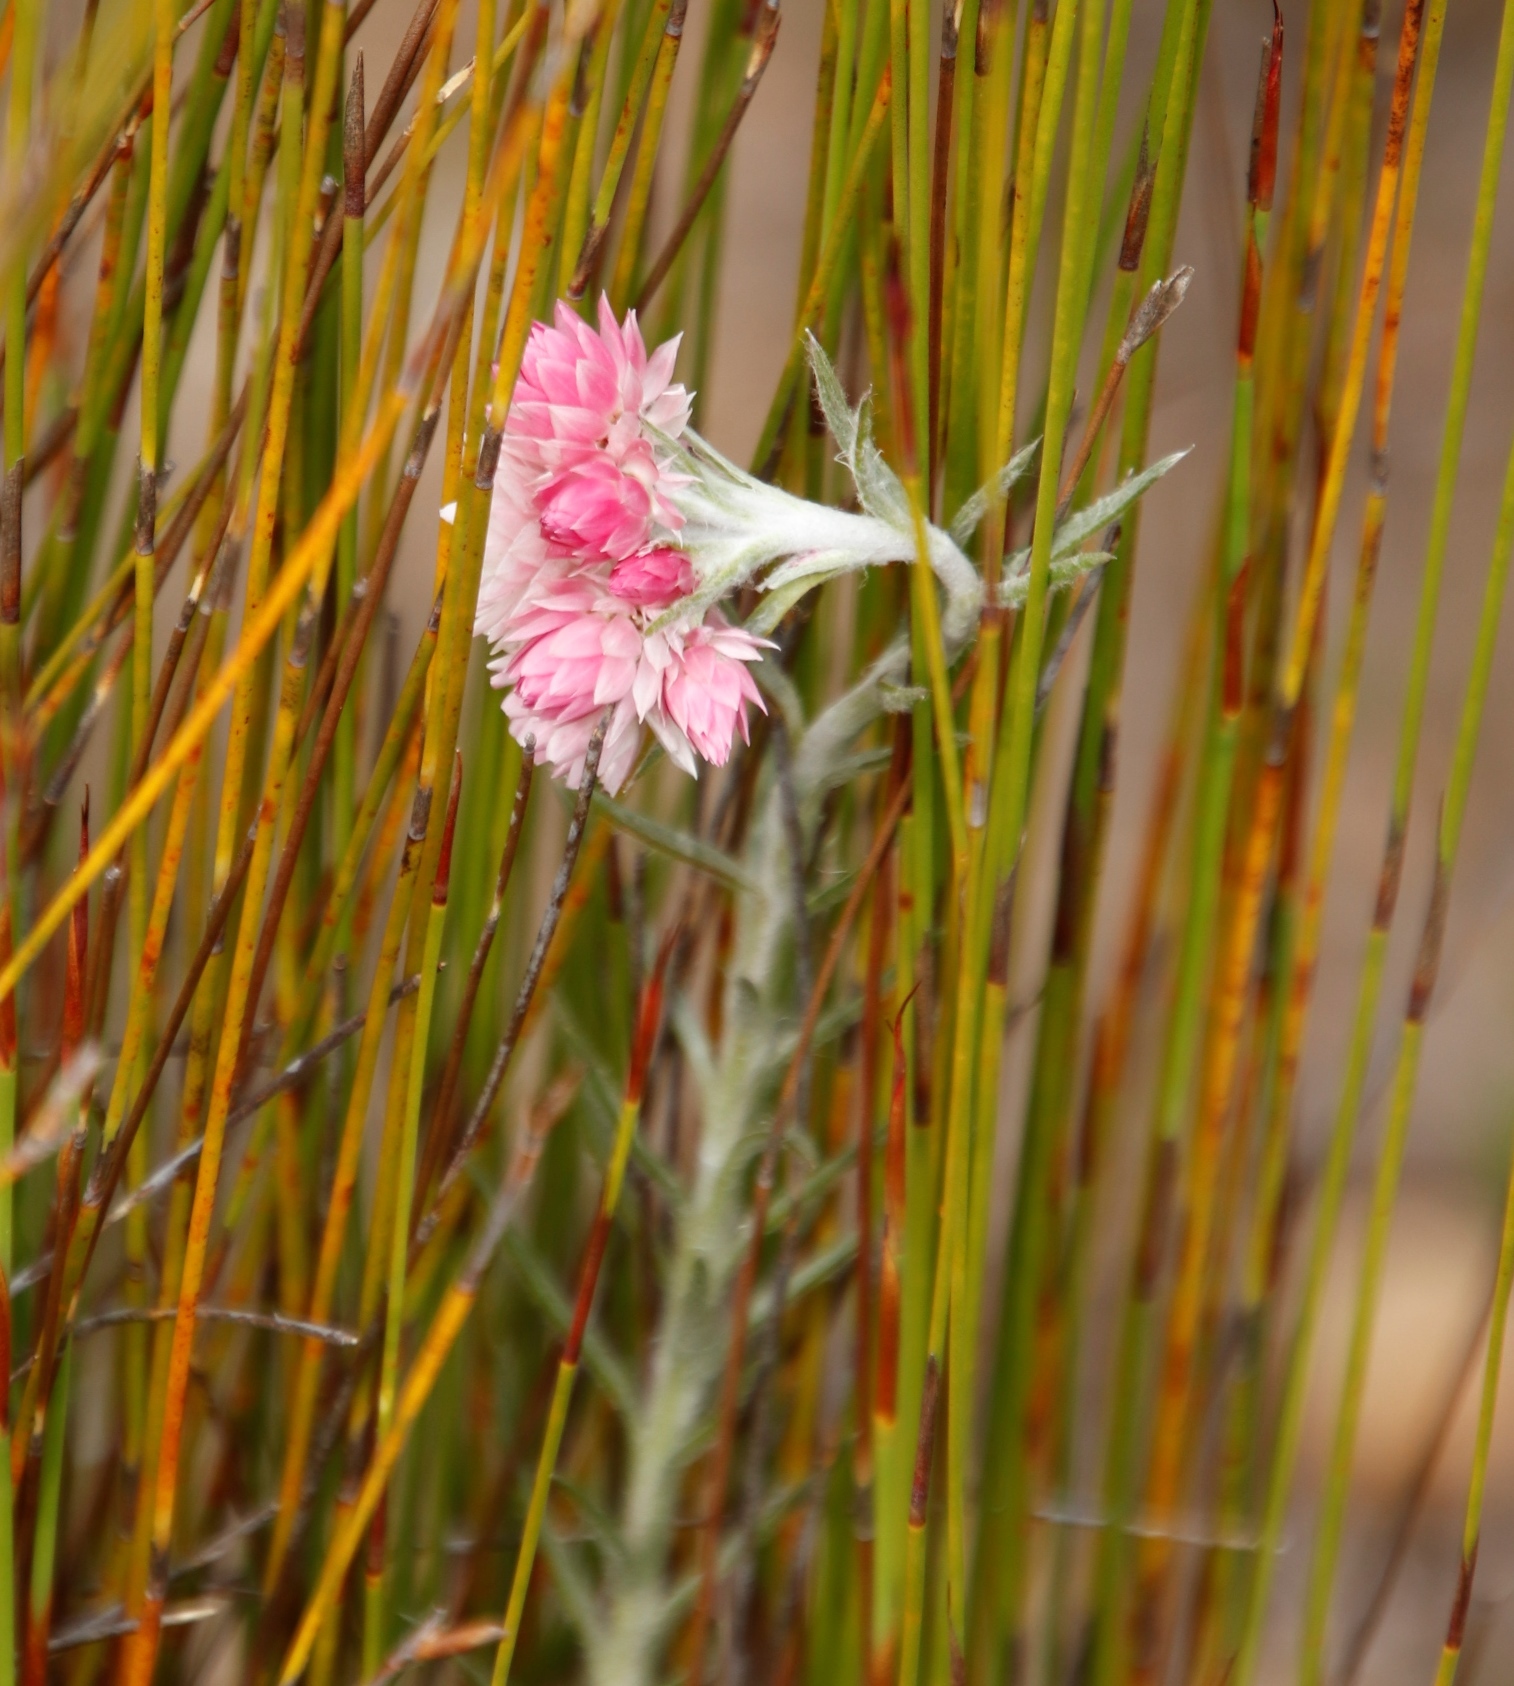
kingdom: Plantae
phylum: Tracheophyta
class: Magnoliopsida
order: Asterales
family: Asteraceae
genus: Achyranthemum
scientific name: Achyranthemum paniculatum
